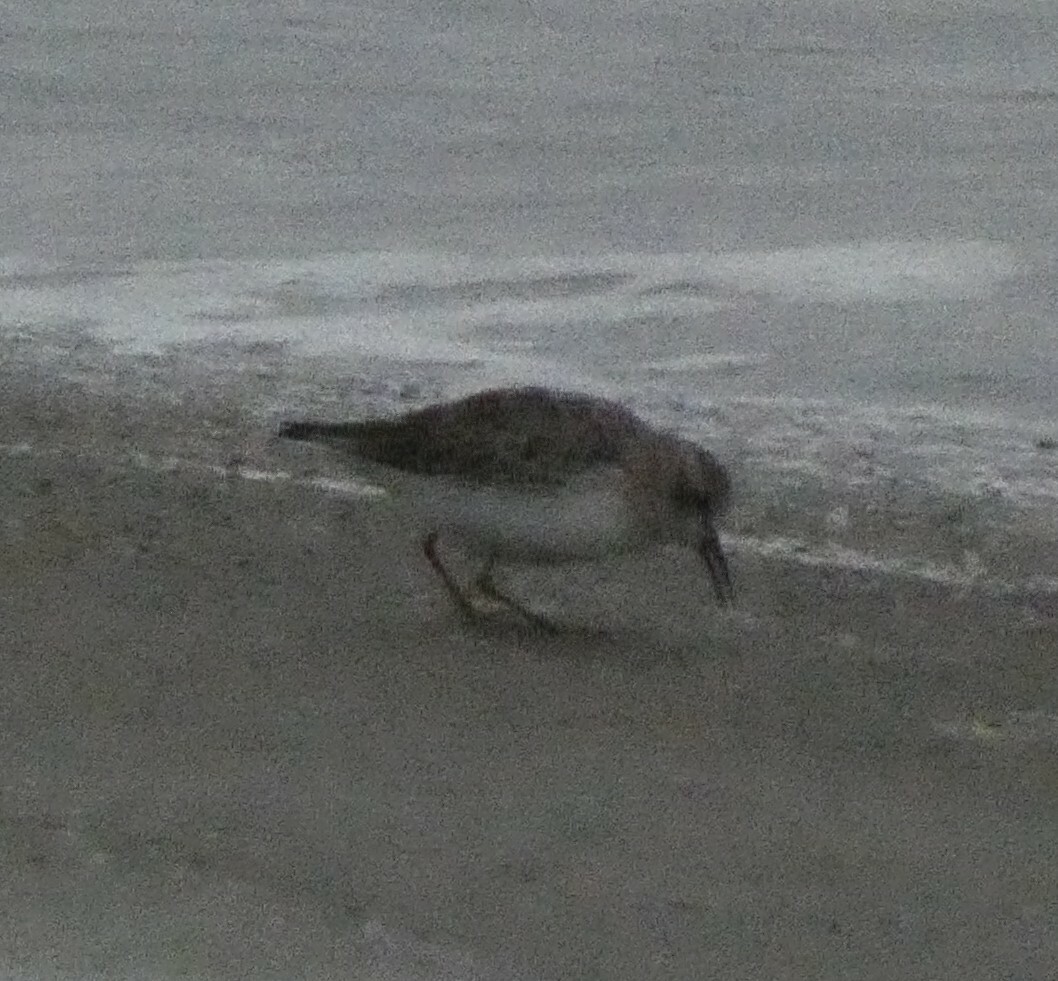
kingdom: Animalia
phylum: Chordata
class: Aves
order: Charadriiformes
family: Scolopacidae
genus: Calidris
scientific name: Calidris minutilla
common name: Least sandpiper
